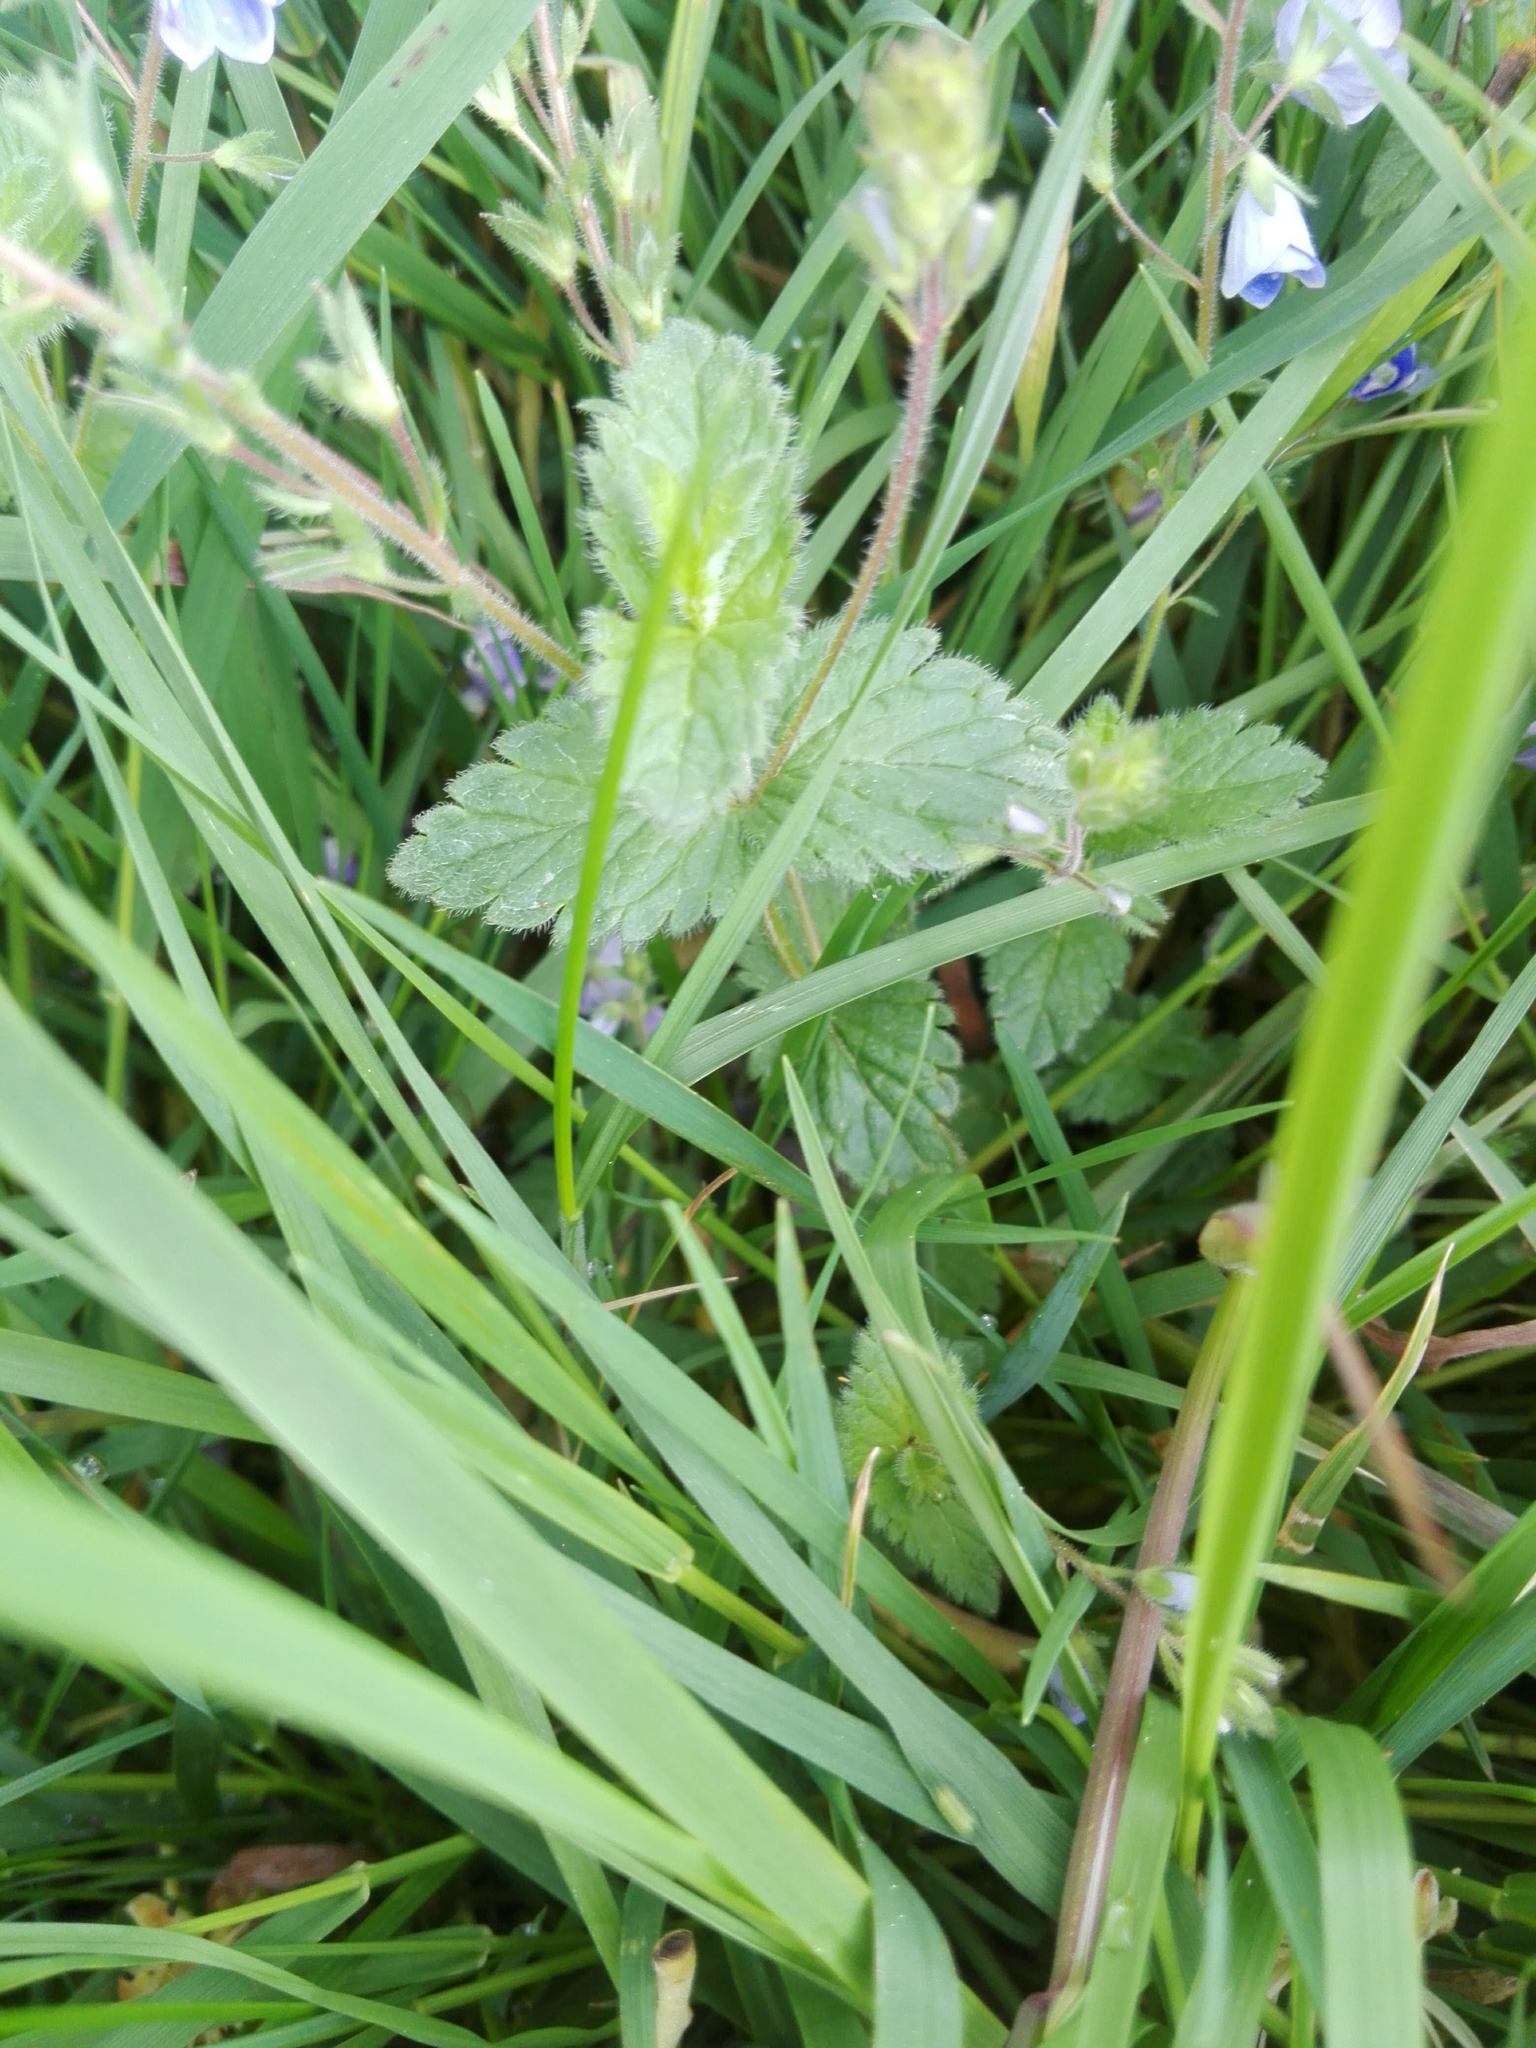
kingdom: Plantae
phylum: Tracheophyta
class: Magnoliopsida
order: Lamiales
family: Plantaginaceae
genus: Veronica
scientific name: Veronica chamaedrys
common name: Germander speedwell
